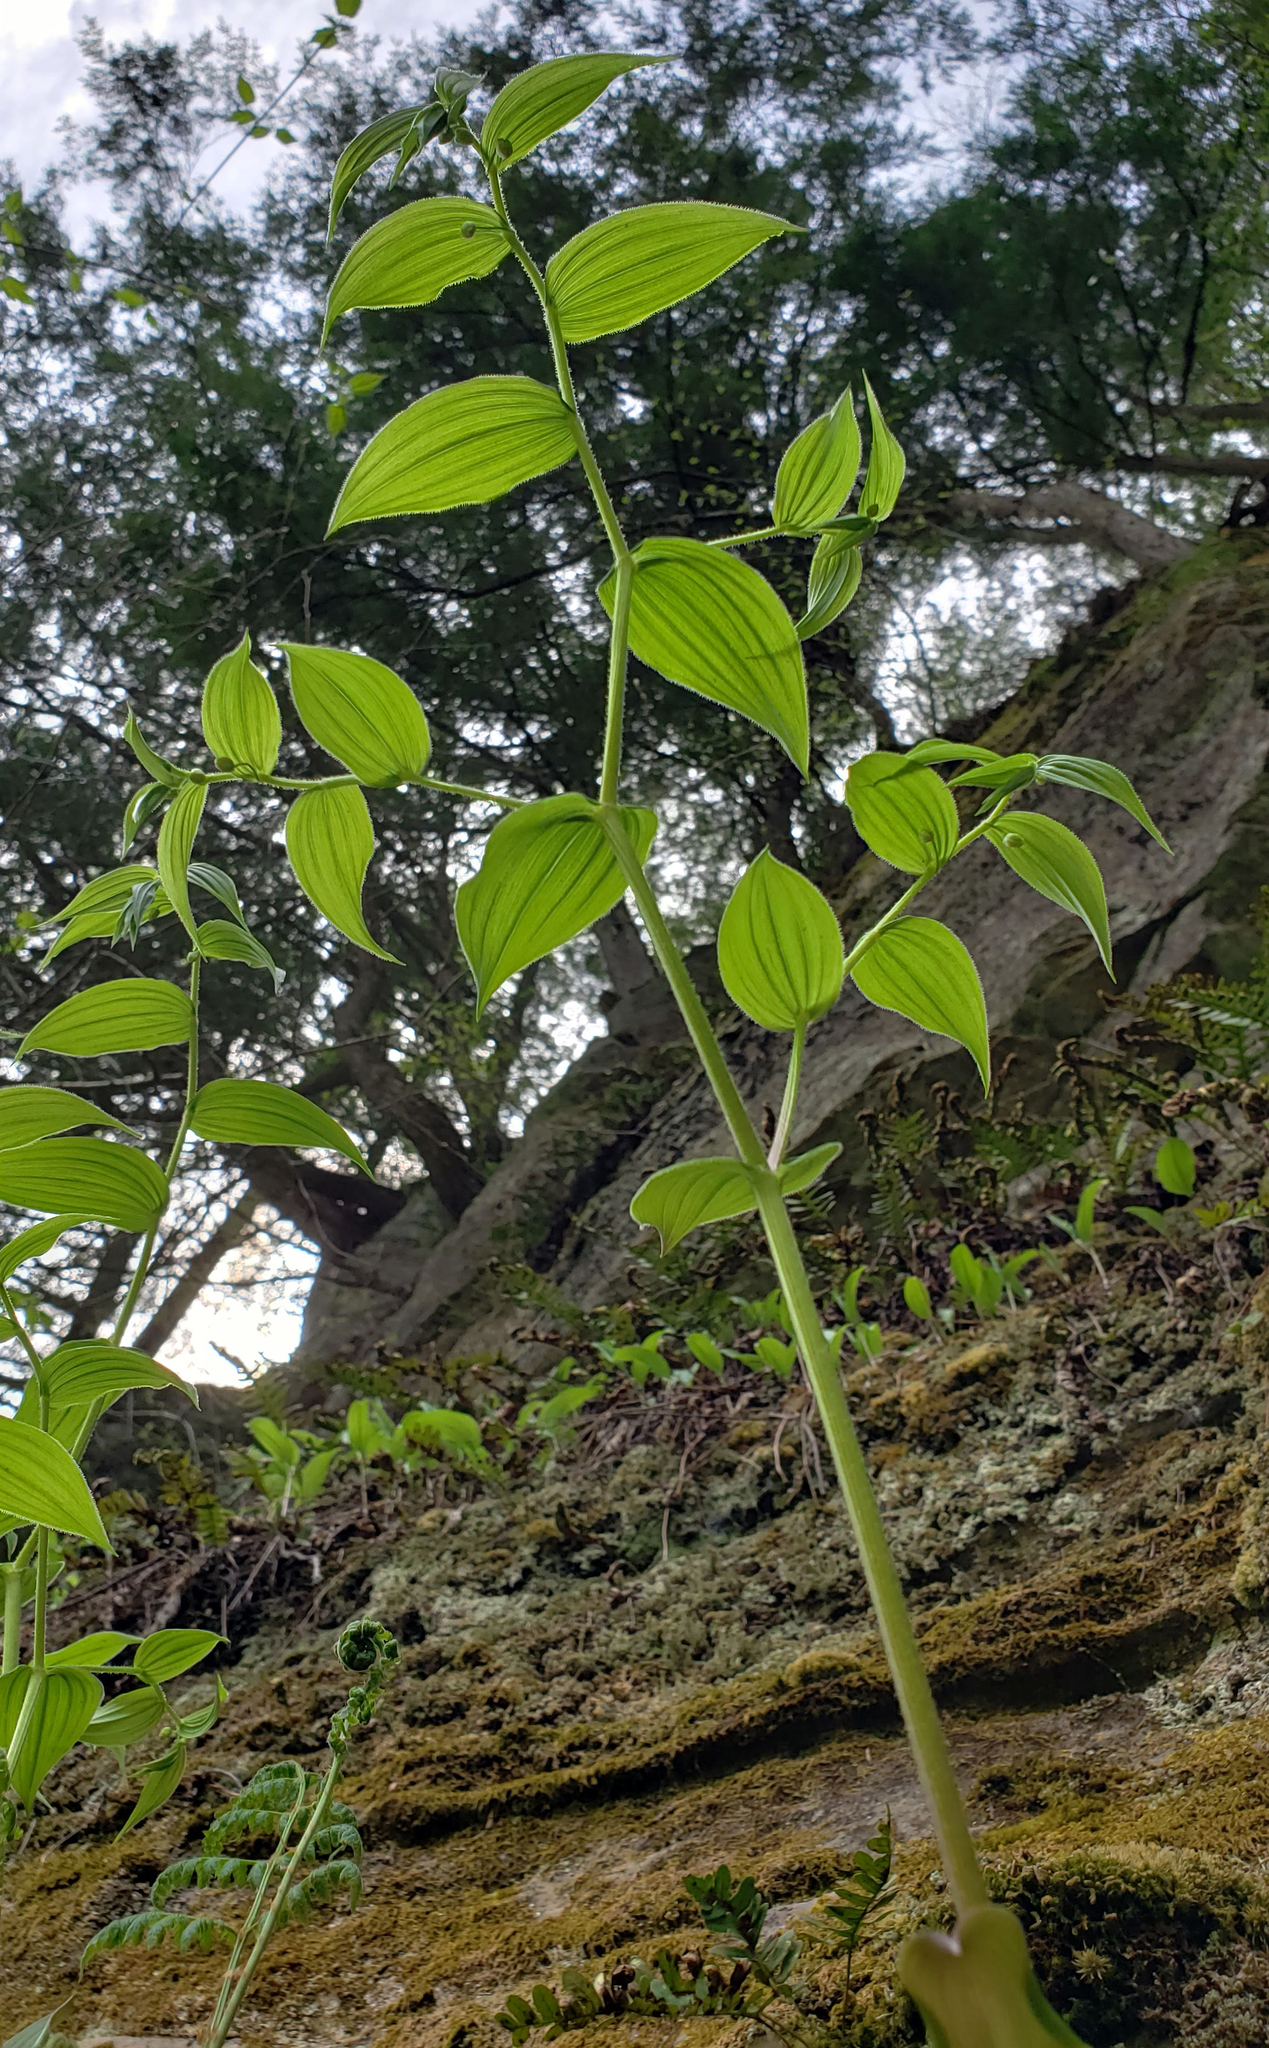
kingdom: Plantae
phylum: Tracheophyta
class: Liliopsida
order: Liliales
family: Liliaceae
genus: Streptopus
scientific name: Streptopus lanceolatus
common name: Rose mandarin
